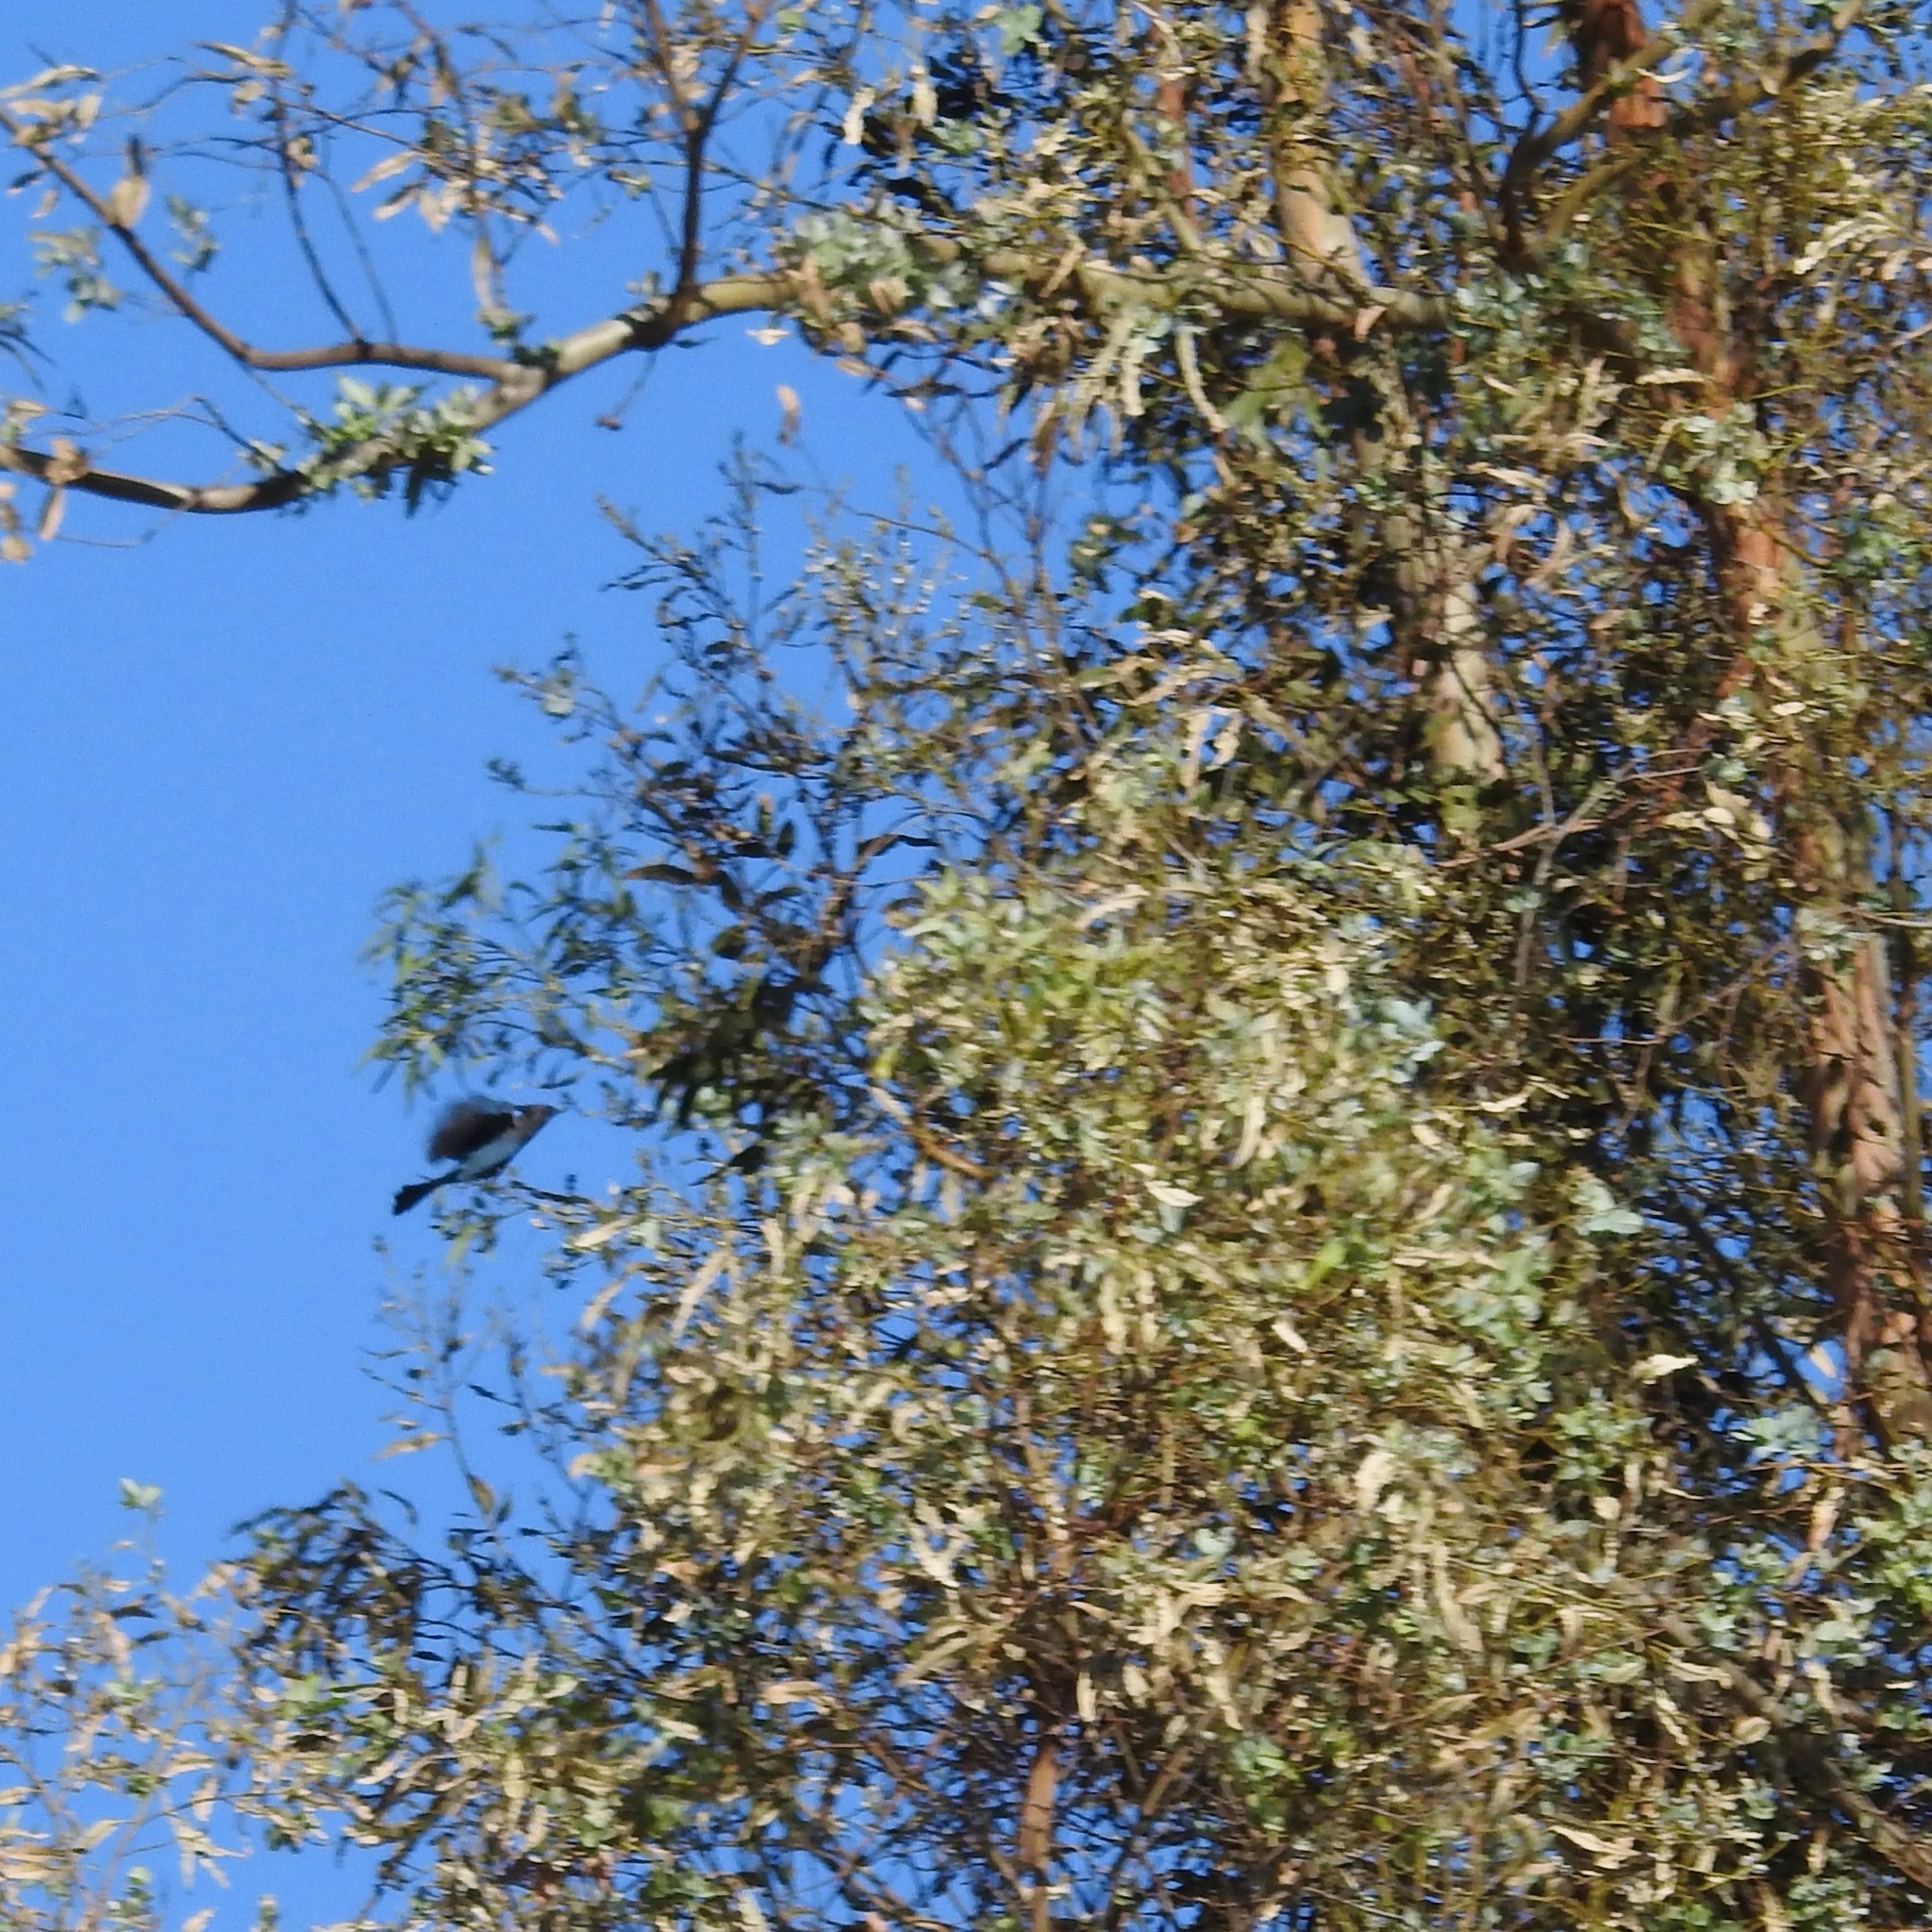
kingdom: Animalia
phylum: Chordata
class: Aves
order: Passeriformes
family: Corvidae
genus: Cyanocitta
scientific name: Cyanocitta stelleri
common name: Steller's jay
